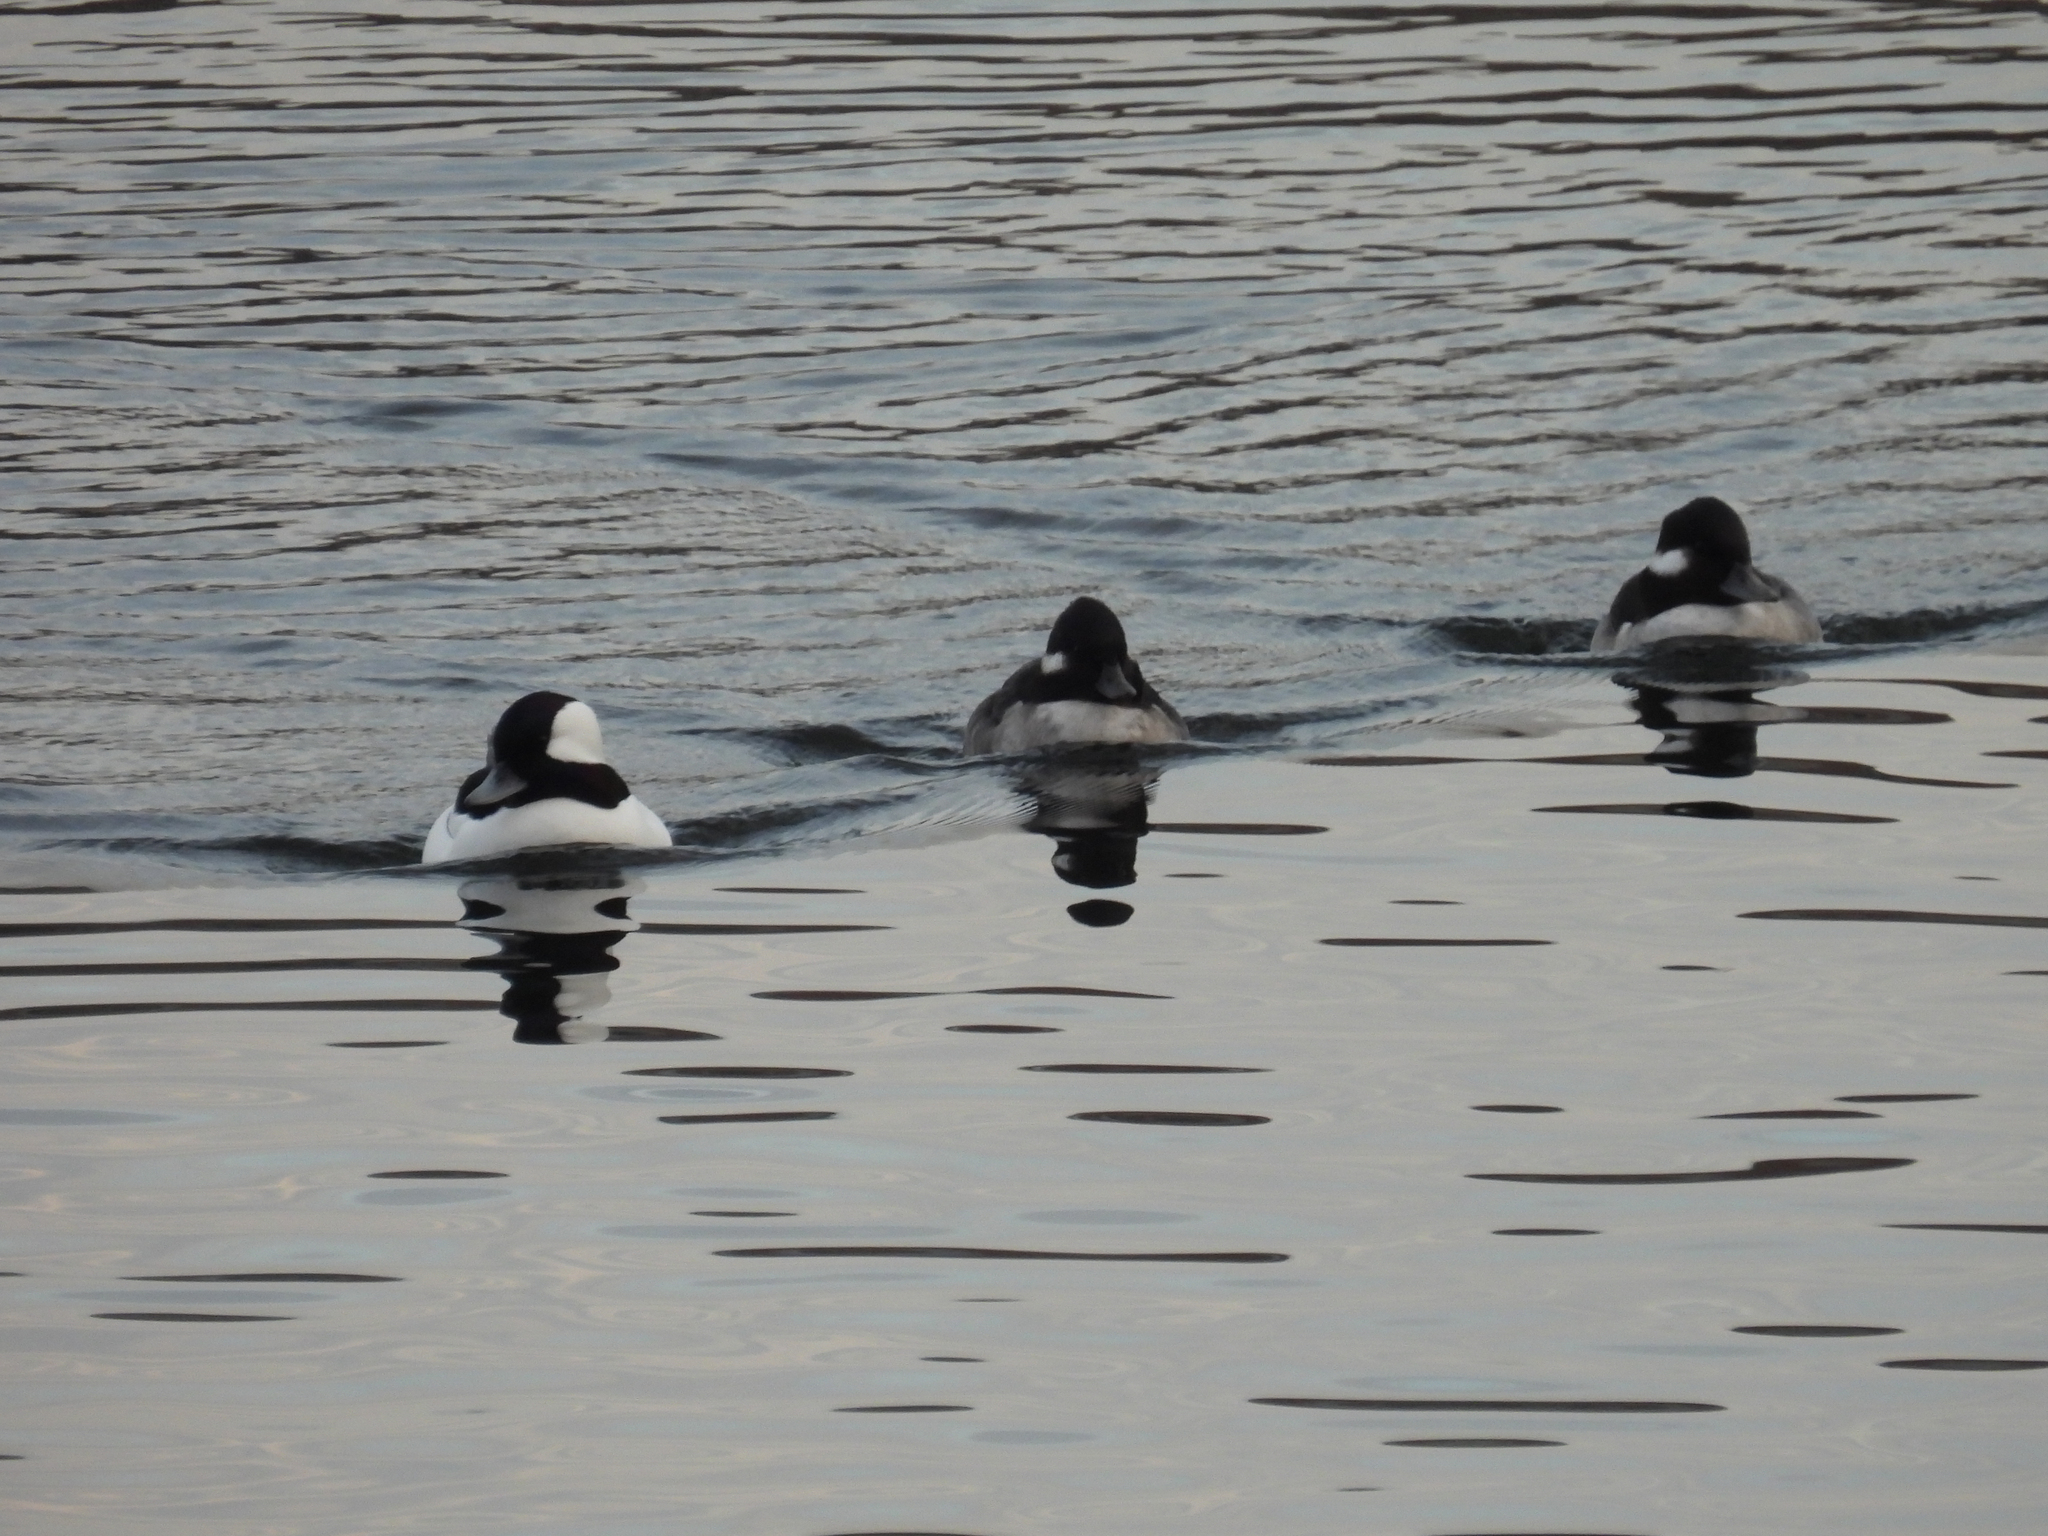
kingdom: Animalia
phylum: Chordata
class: Aves
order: Anseriformes
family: Anatidae
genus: Bucephala
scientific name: Bucephala albeola
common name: Bufflehead
